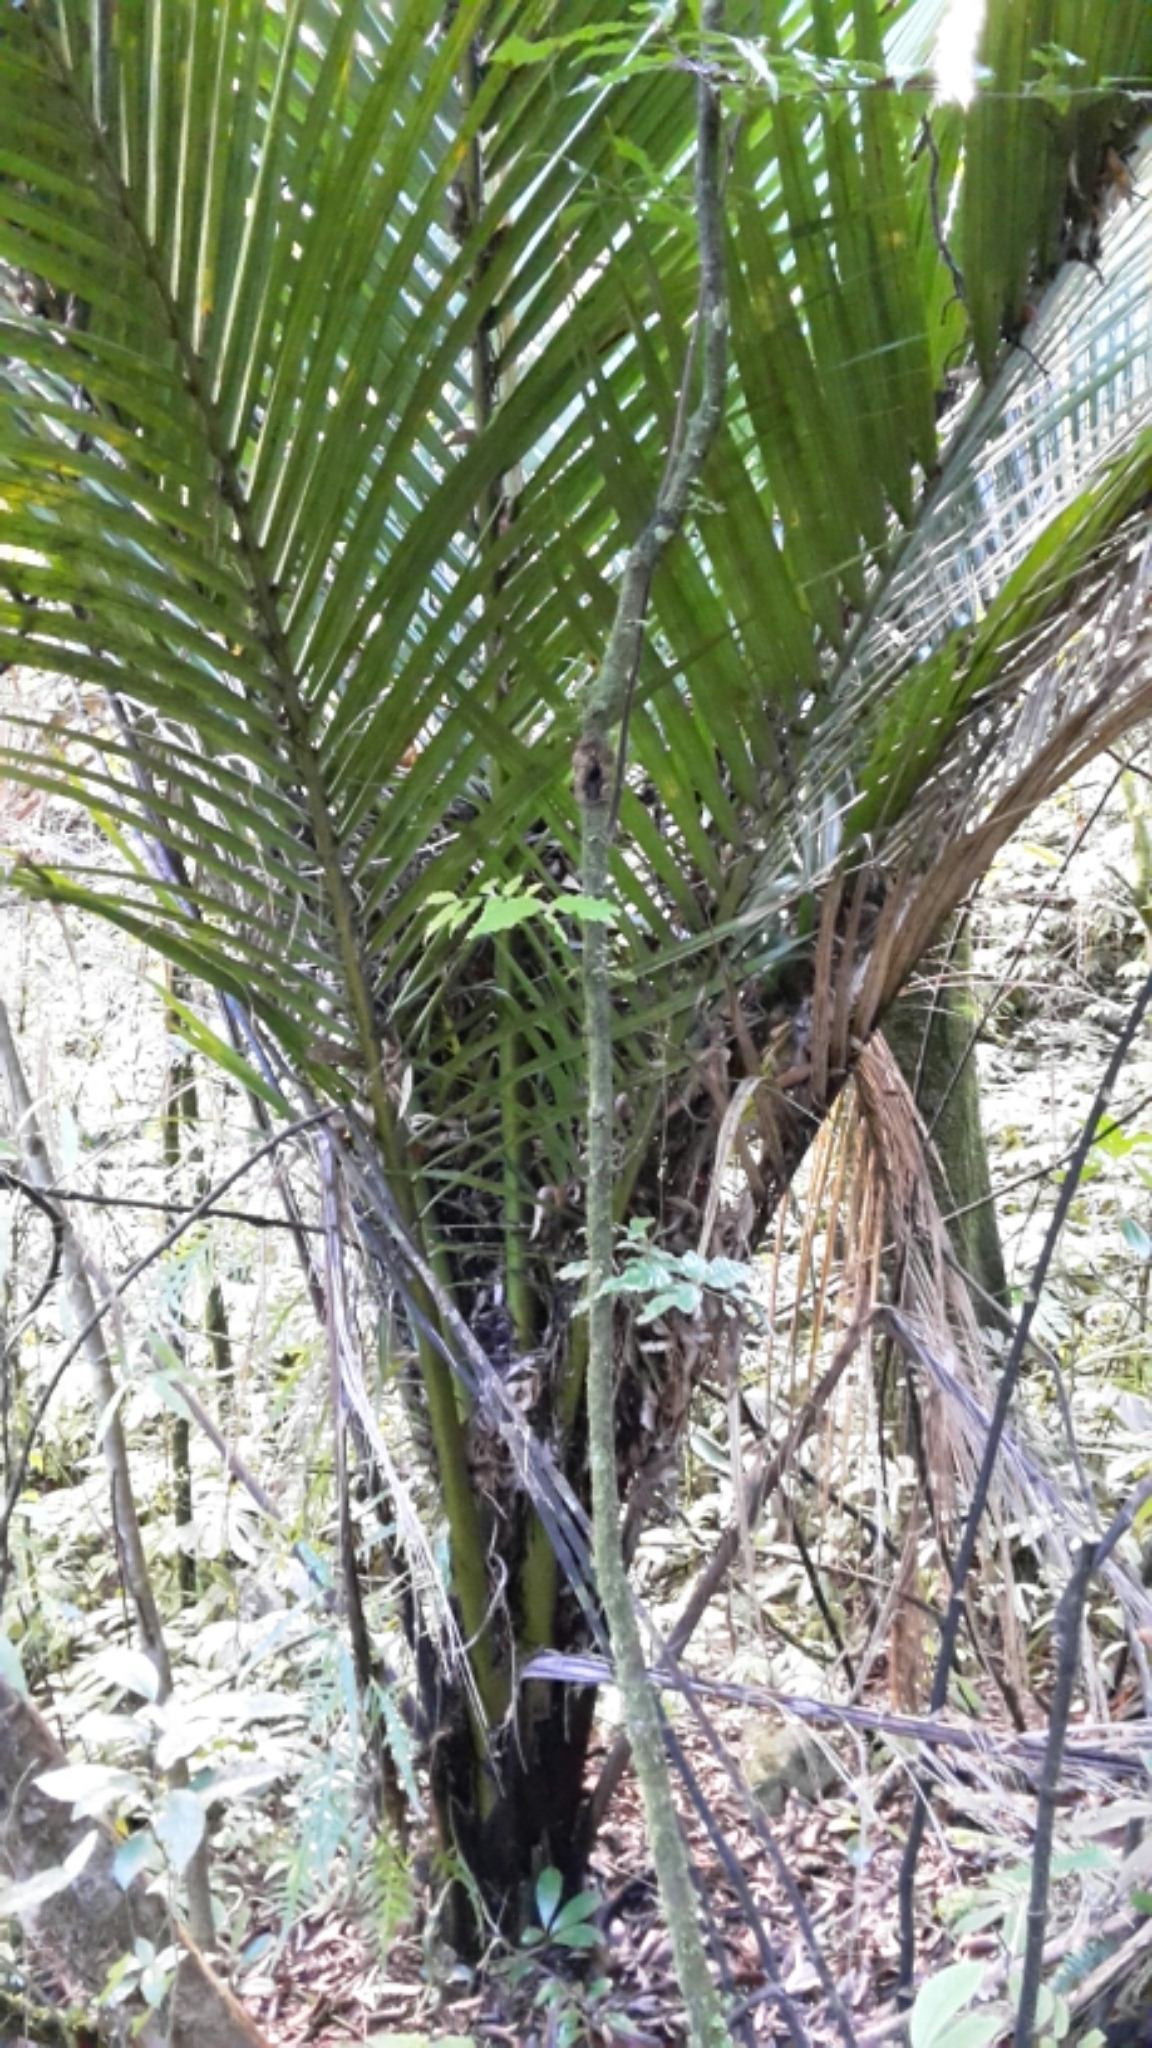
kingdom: Plantae
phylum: Tracheophyta
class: Liliopsida
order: Arecales
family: Arecaceae
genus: Rhopalostylis
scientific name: Rhopalostylis sapida
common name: Feather-duster palm
